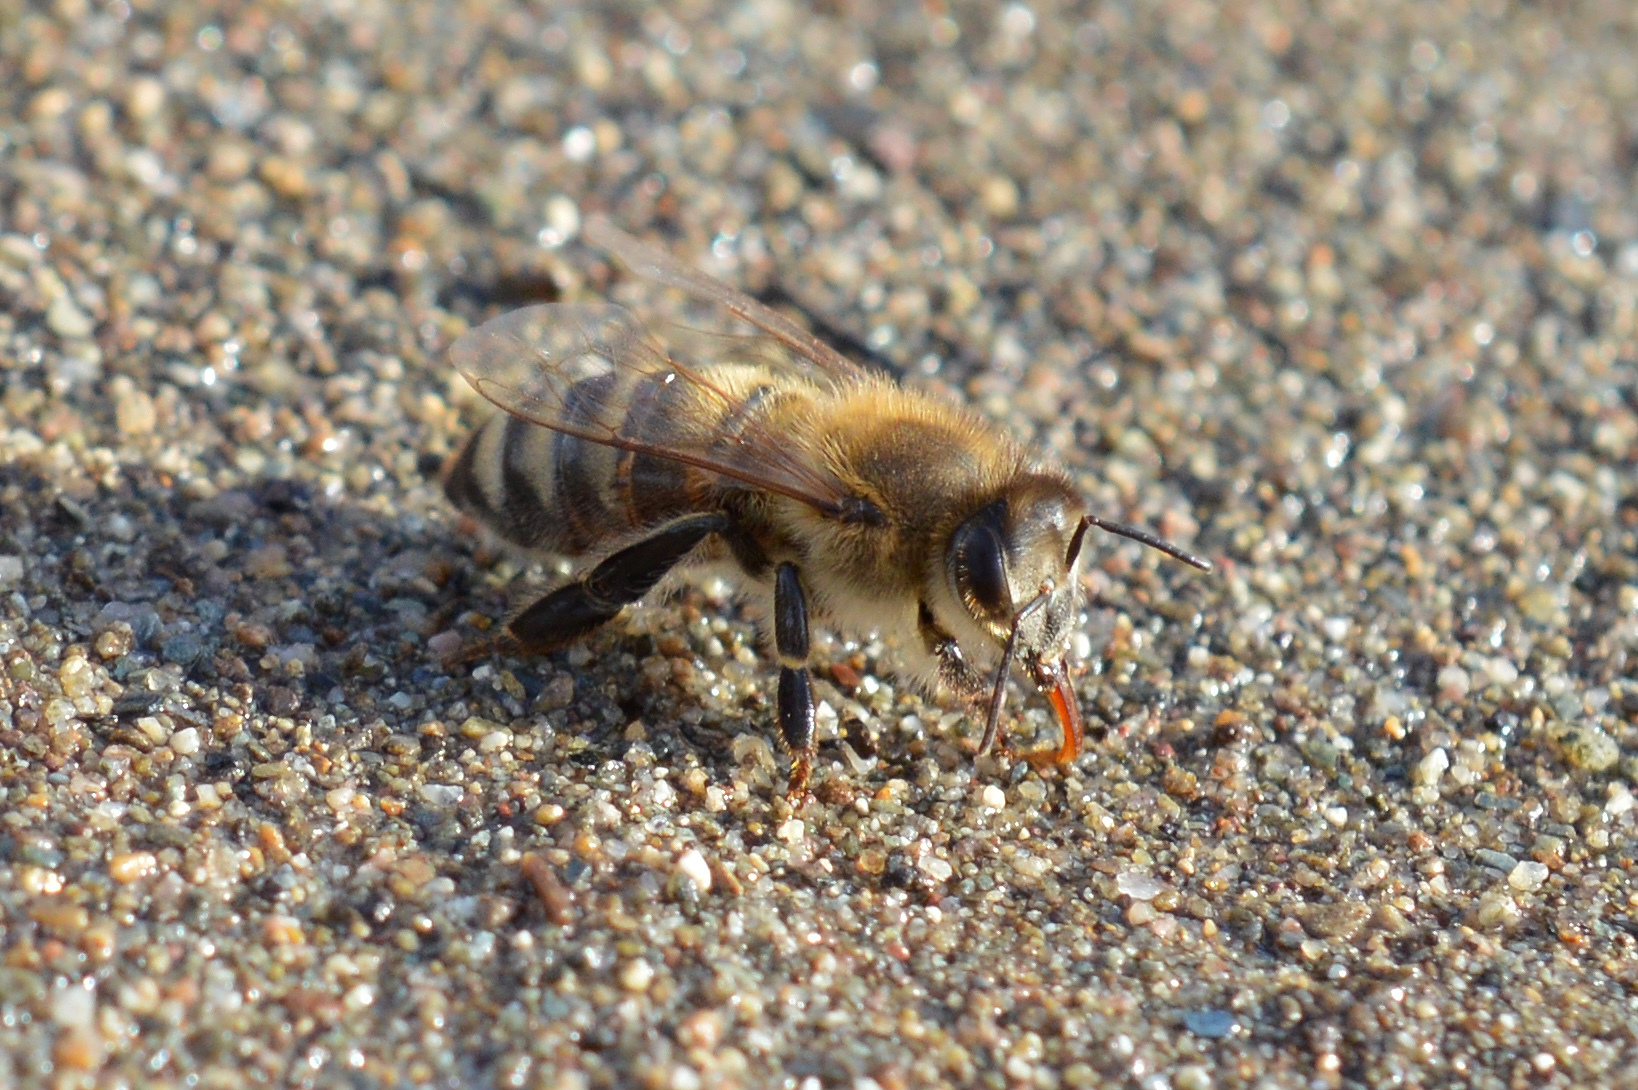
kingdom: Animalia
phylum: Arthropoda
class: Insecta
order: Hymenoptera
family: Apidae
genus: Apis
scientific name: Apis mellifera
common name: Honey bee
